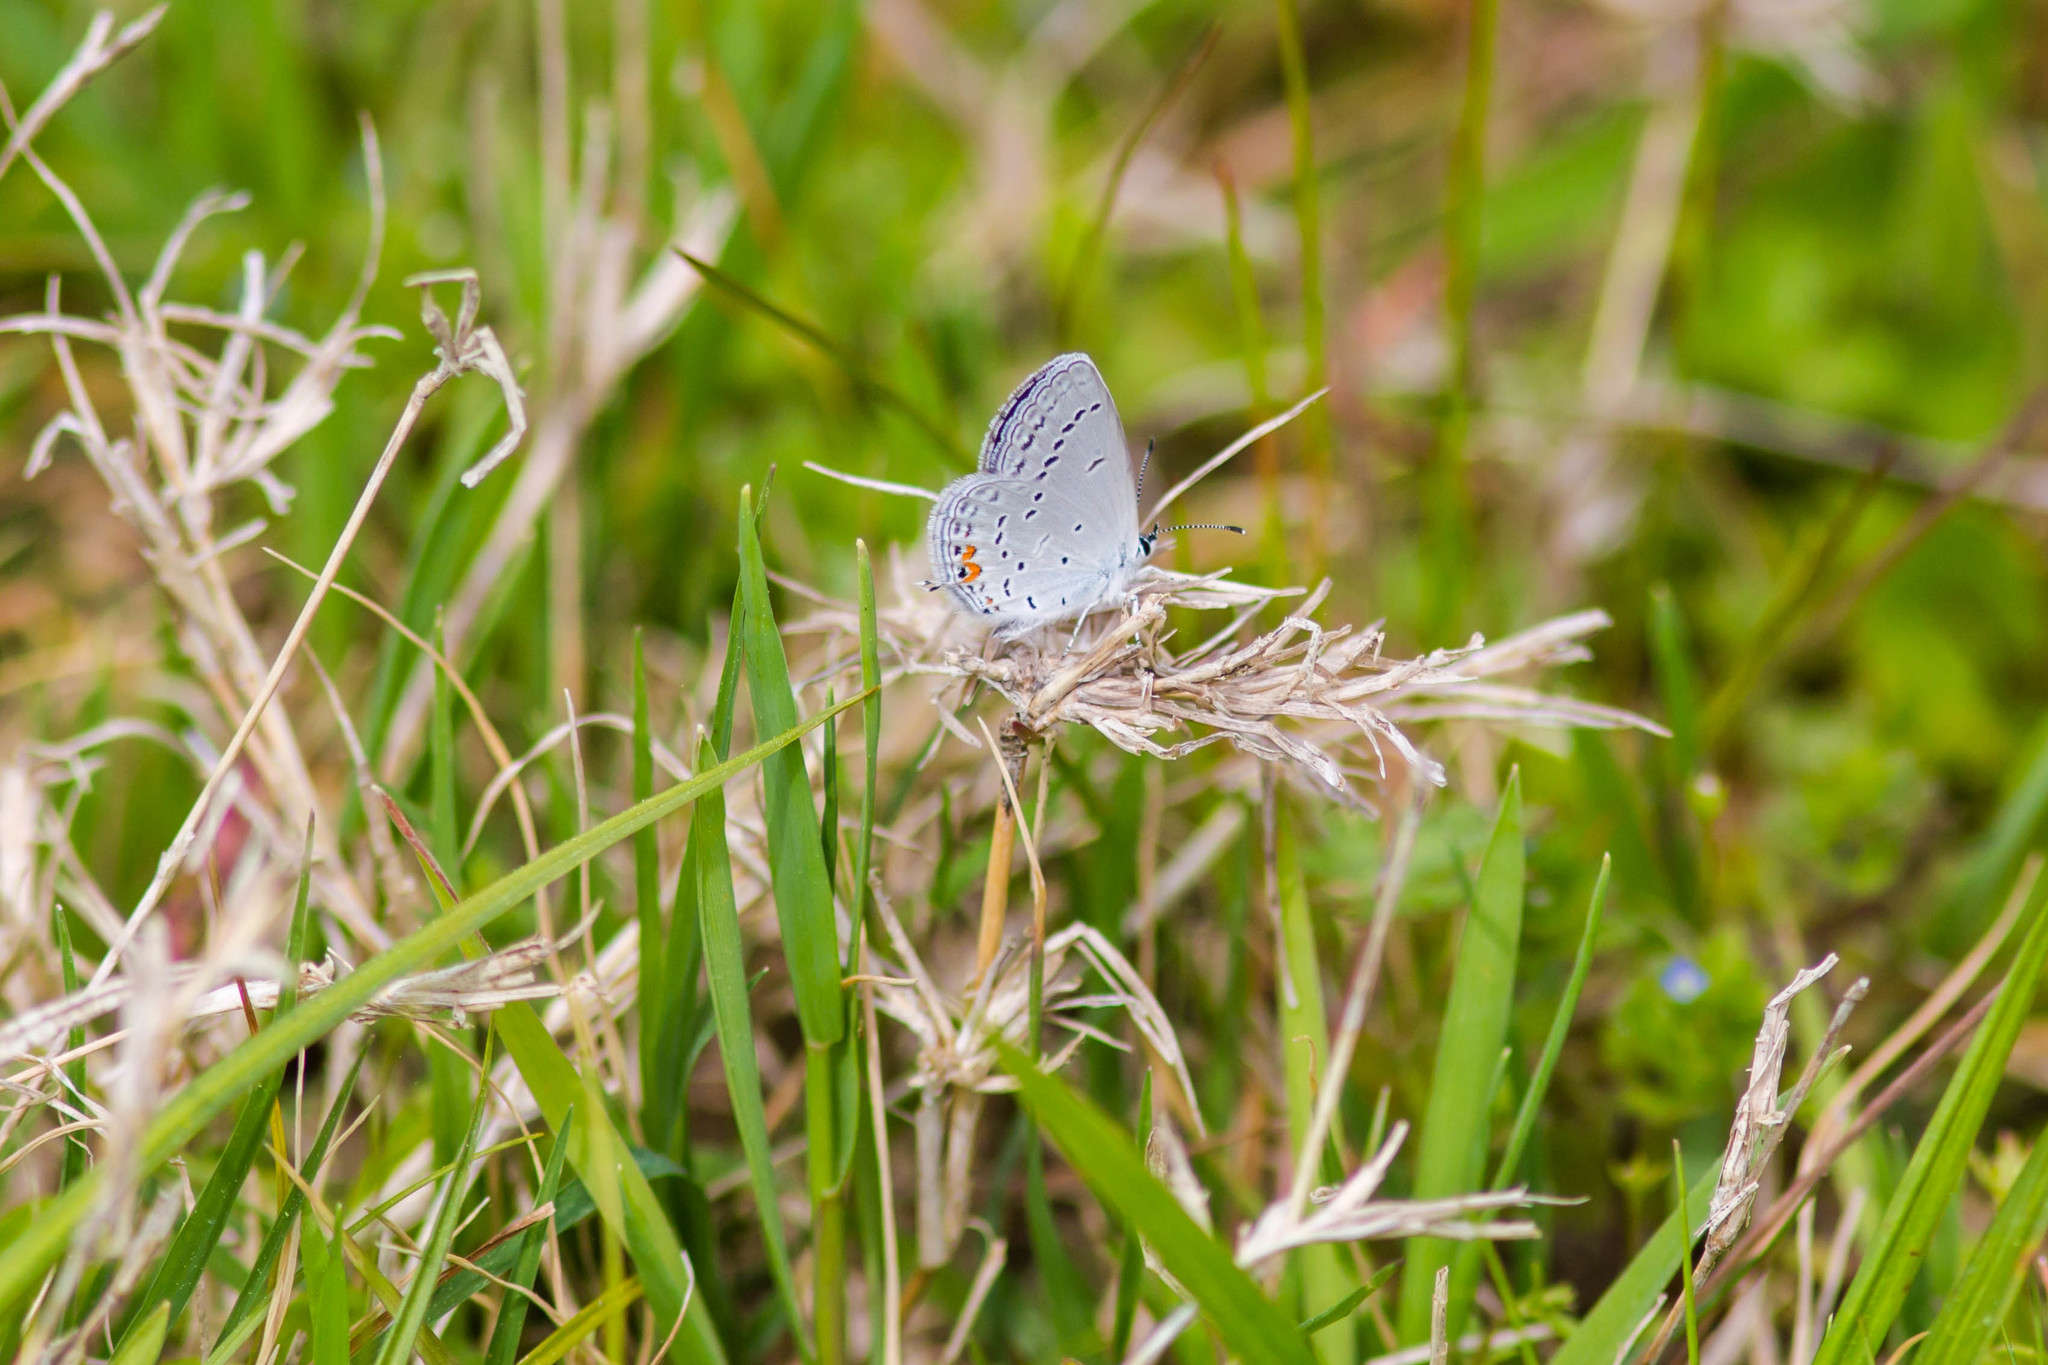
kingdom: Animalia
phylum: Arthropoda
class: Insecta
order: Lepidoptera
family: Lycaenidae
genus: Elkalyce
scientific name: Elkalyce comyntas
